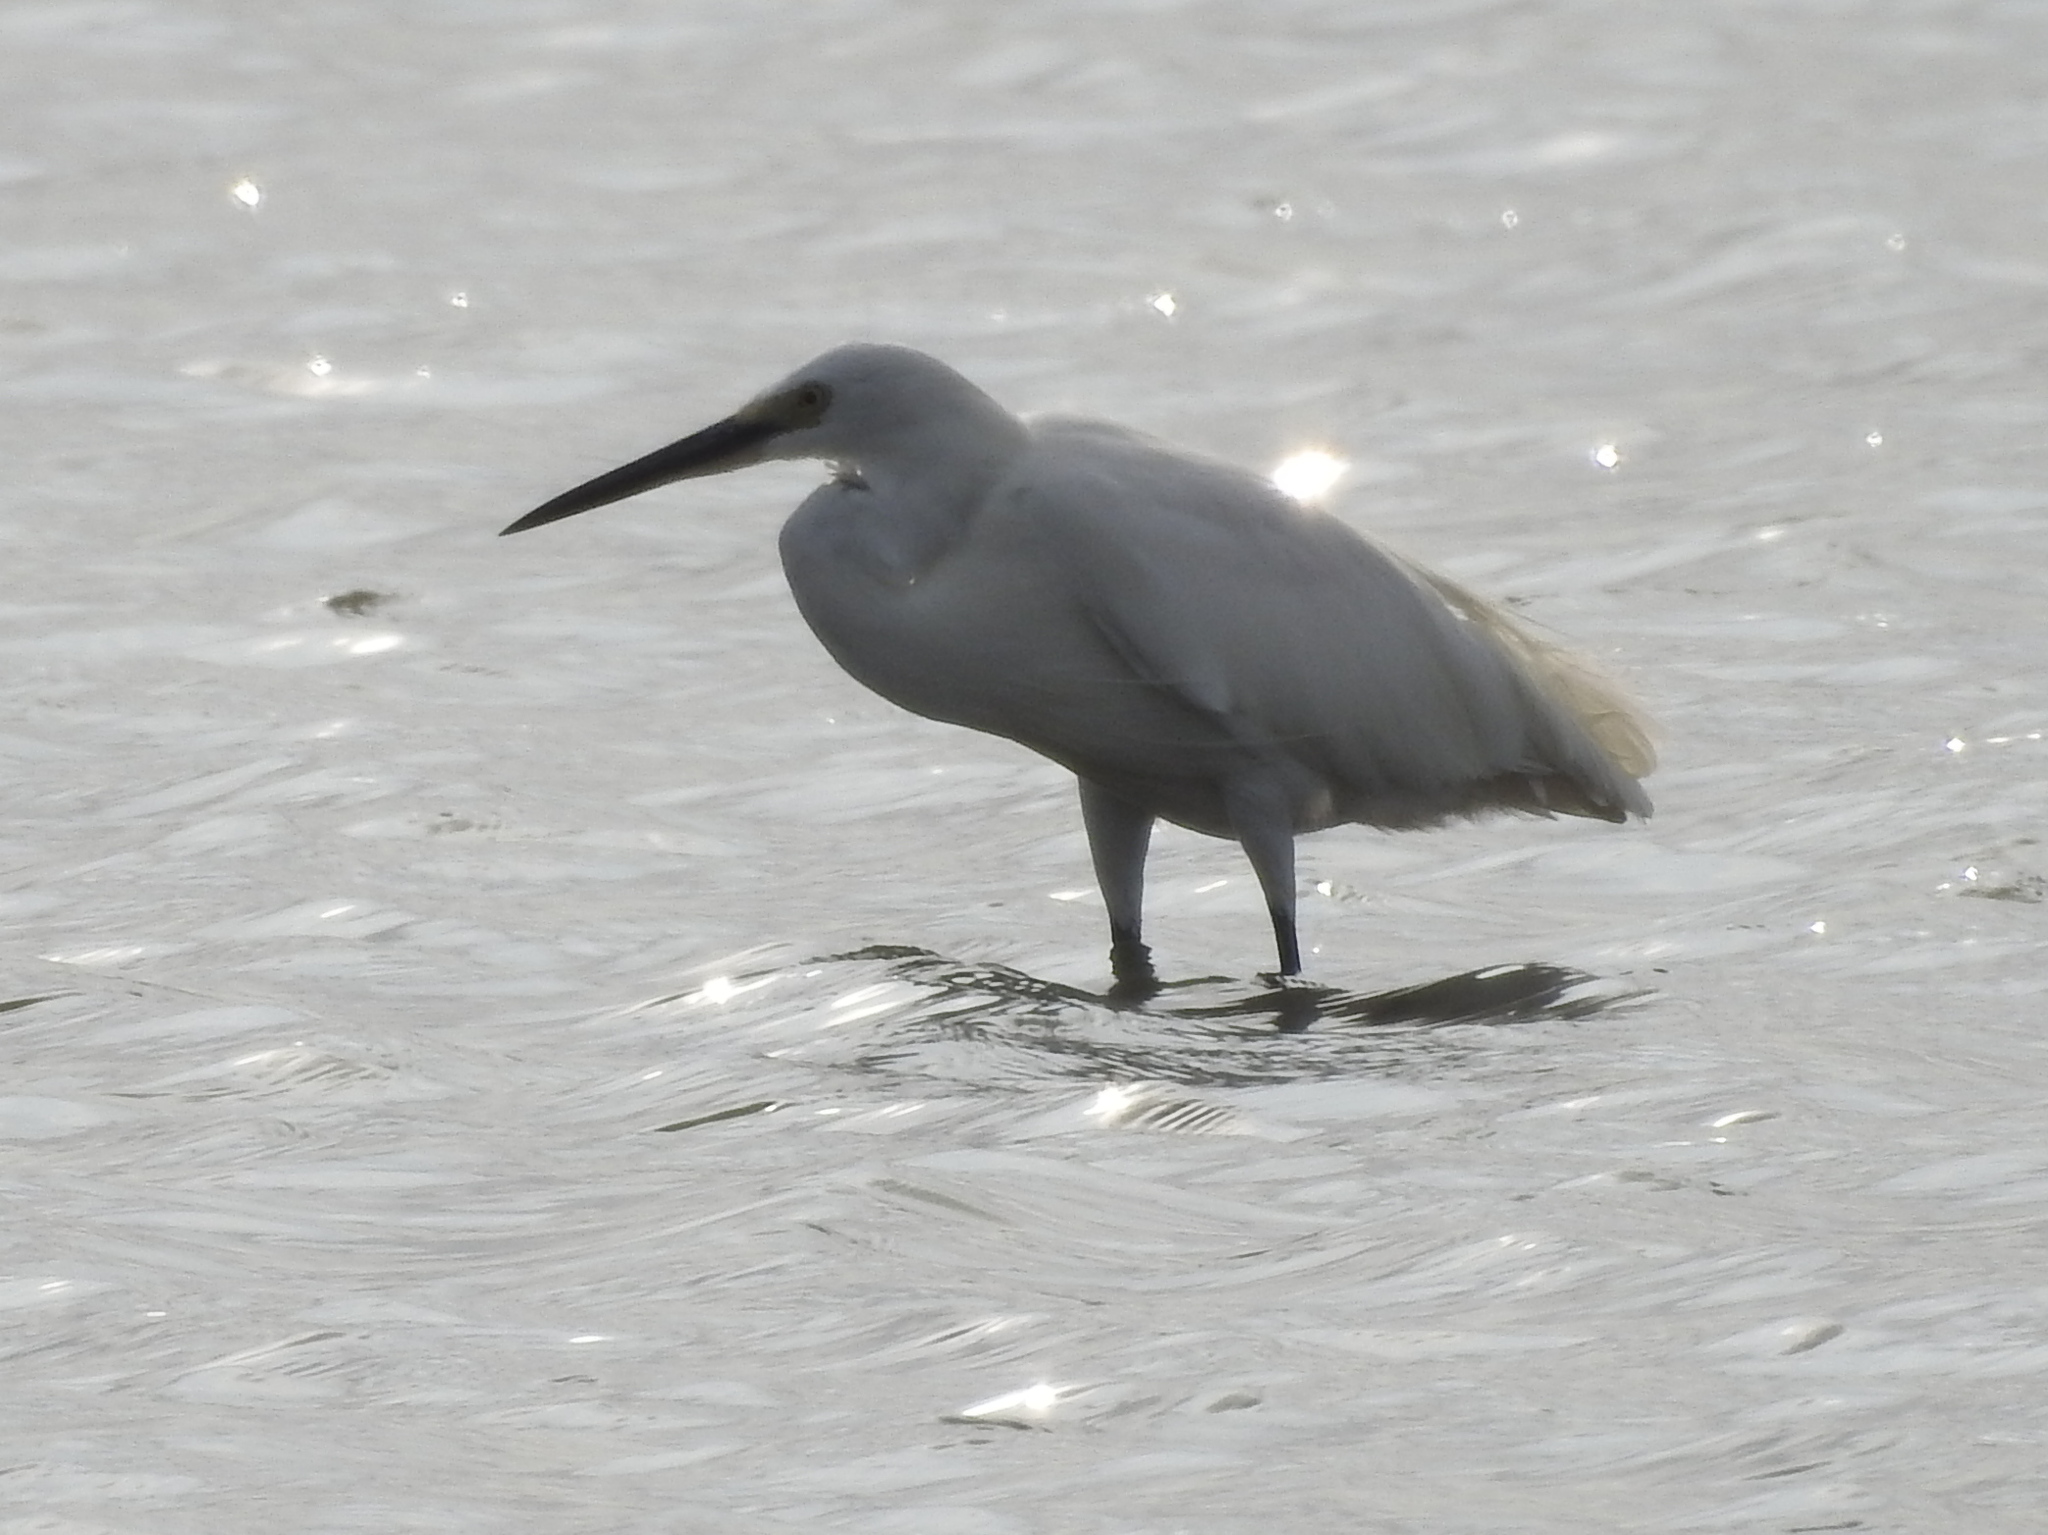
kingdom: Animalia
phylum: Chordata
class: Aves
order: Pelecaniformes
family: Ardeidae
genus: Egretta
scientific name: Egretta garzetta
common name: Little egret
